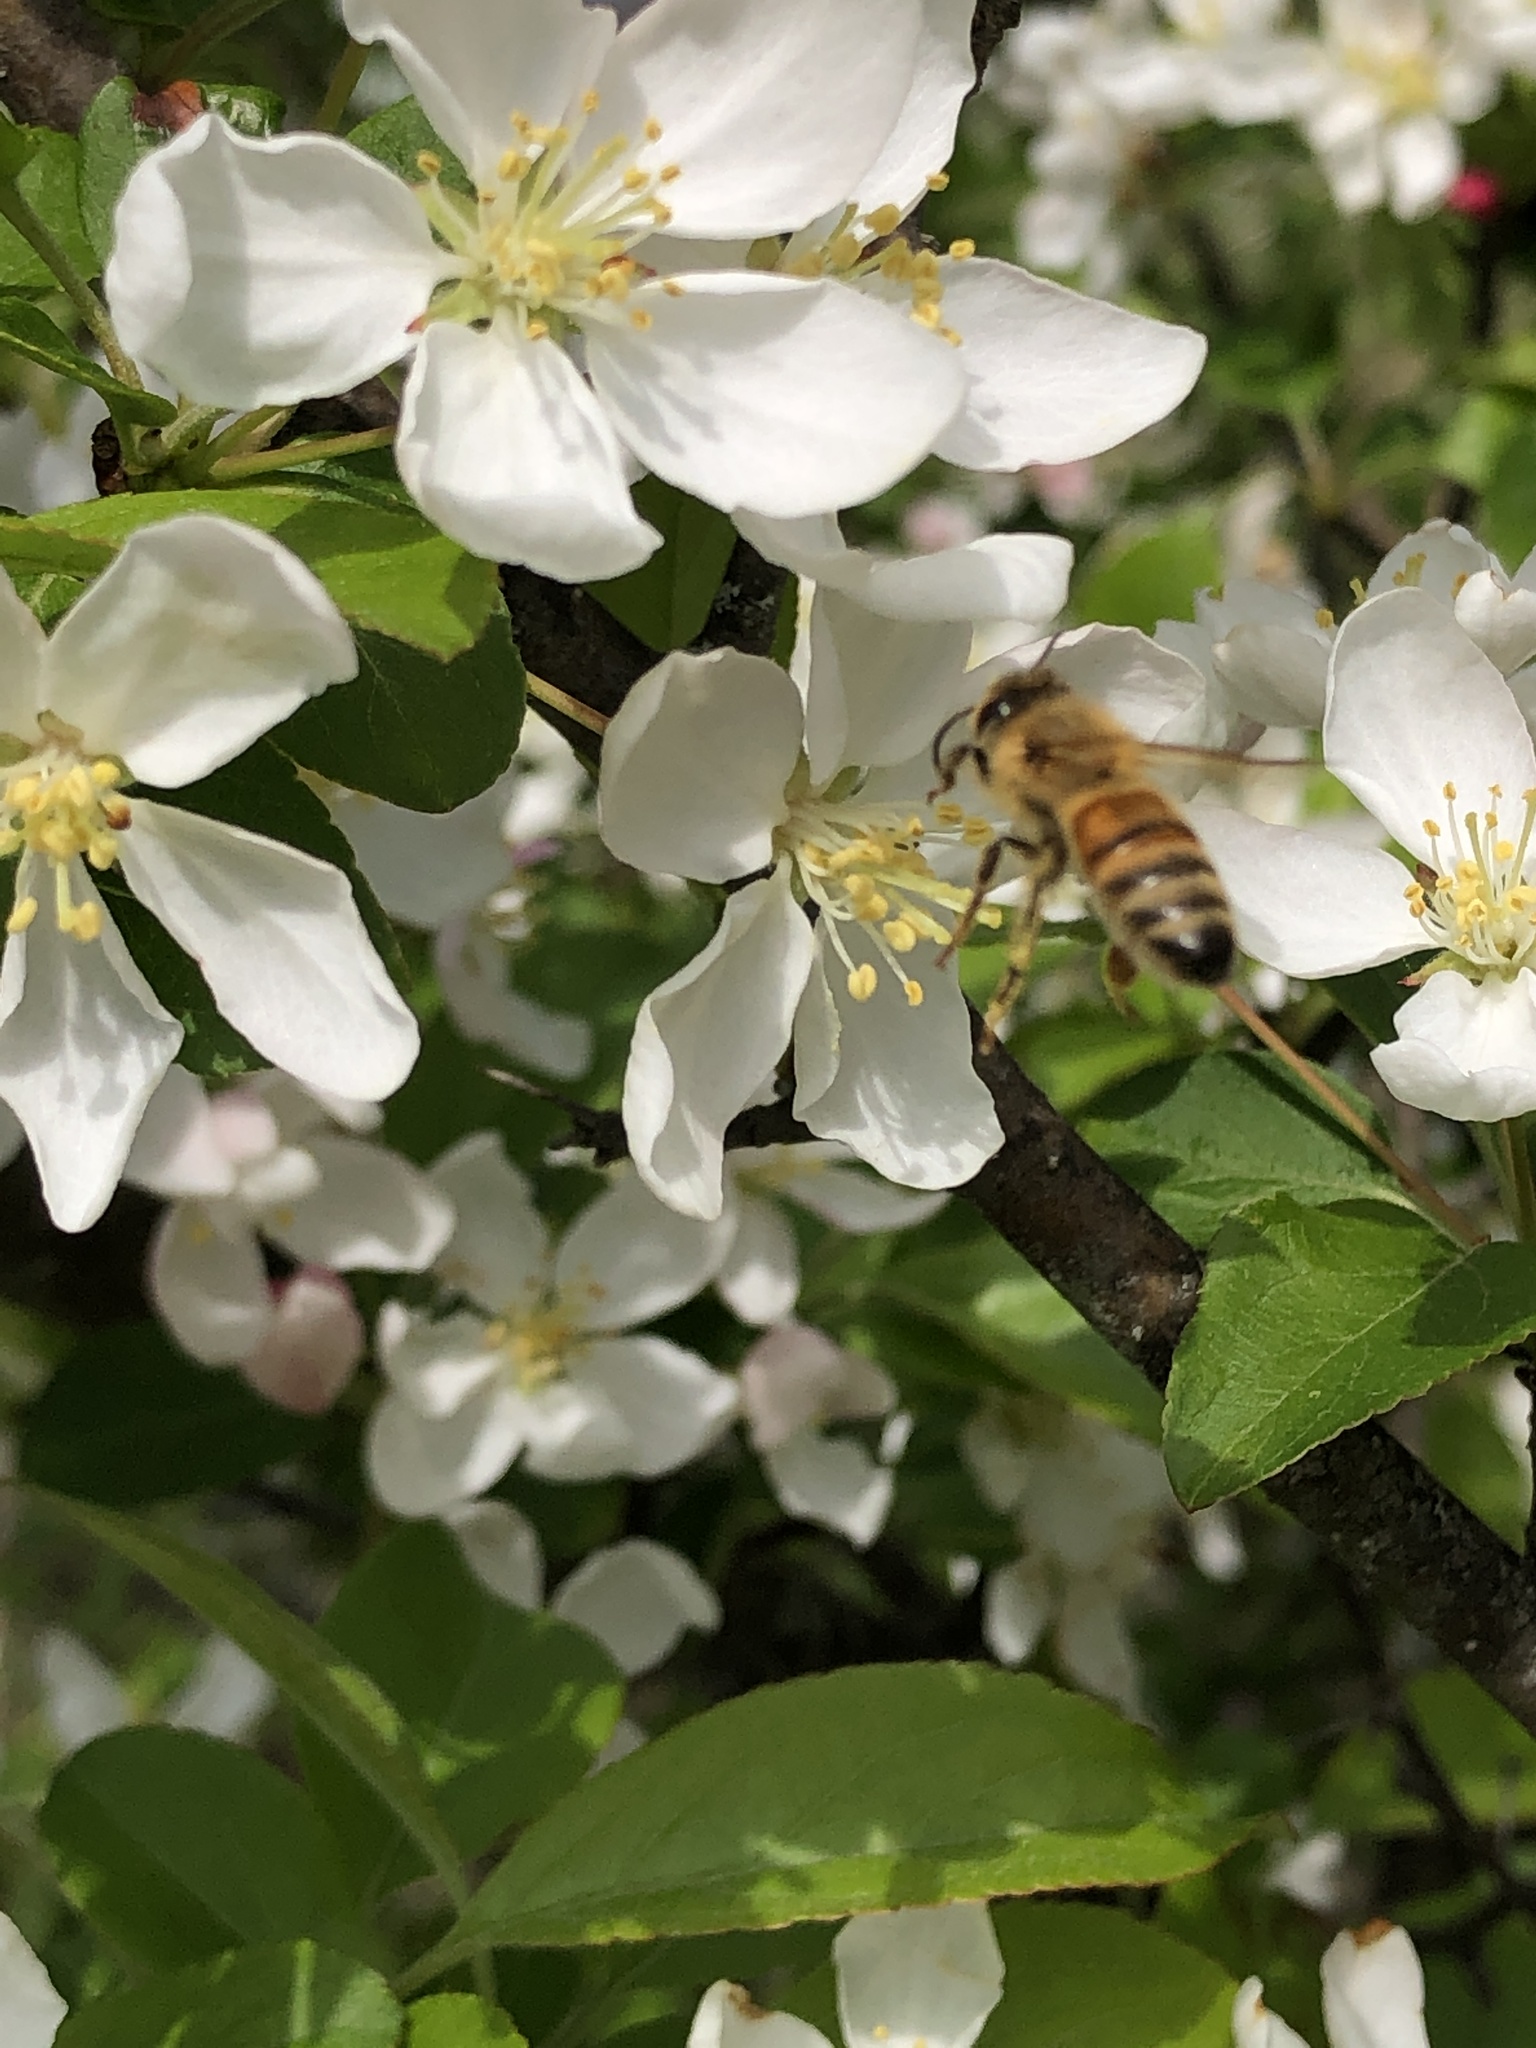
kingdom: Animalia
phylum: Arthropoda
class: Insecta
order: Hymenoptera
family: Apidae
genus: Apis
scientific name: Apis mellifera
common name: Honey bee
